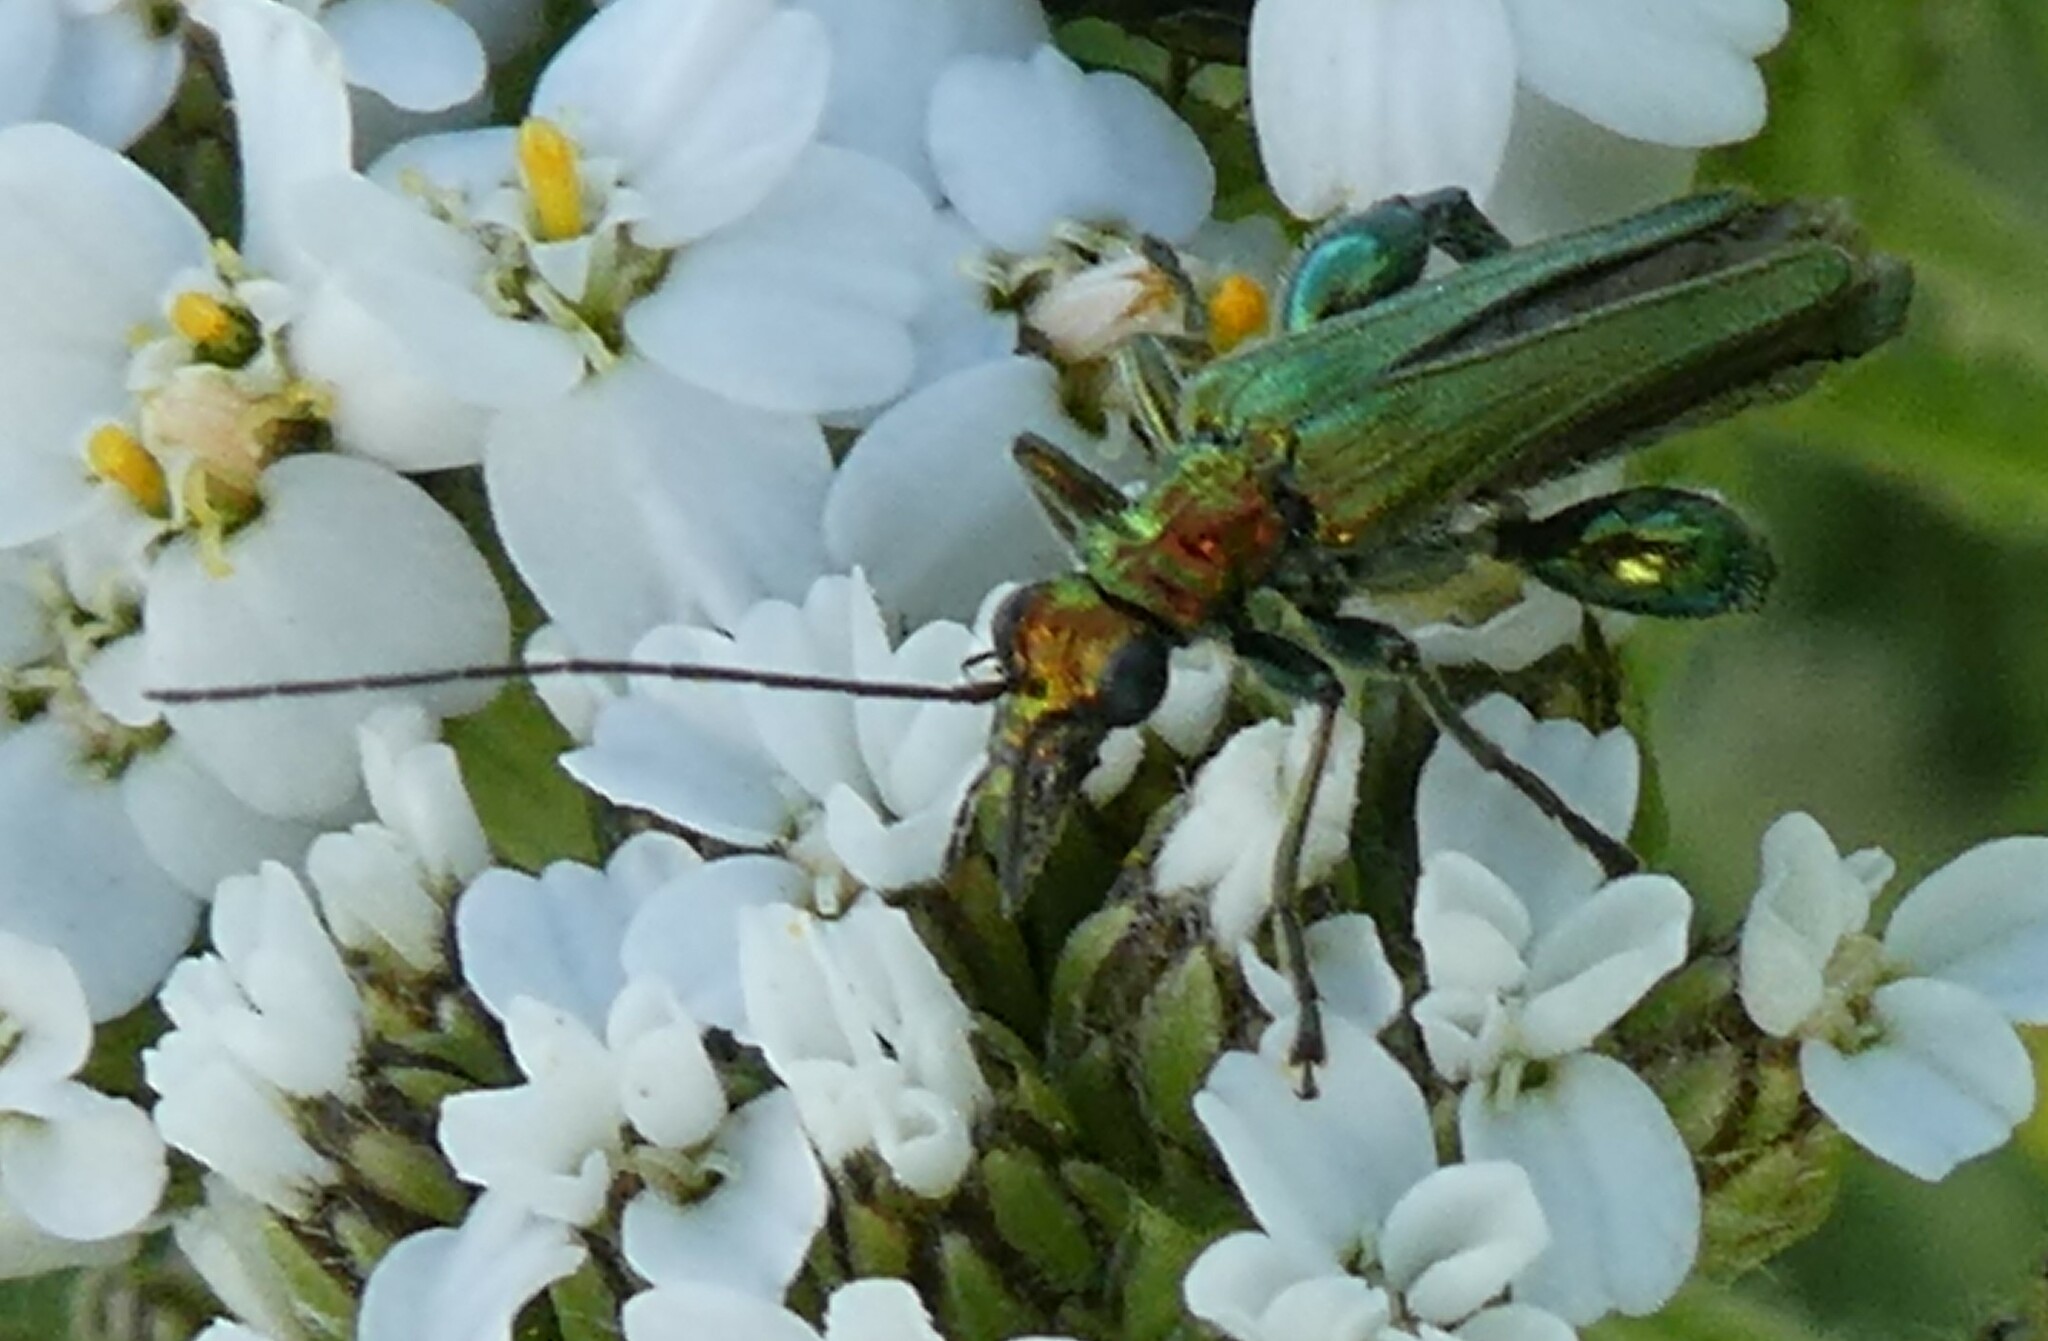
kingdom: Animalia
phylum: Arthropoda
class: Insecta
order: Coleoptera
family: Oedemeridae
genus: Oedemera
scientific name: Oedemera nobilis
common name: Swollen-thighed beetle
